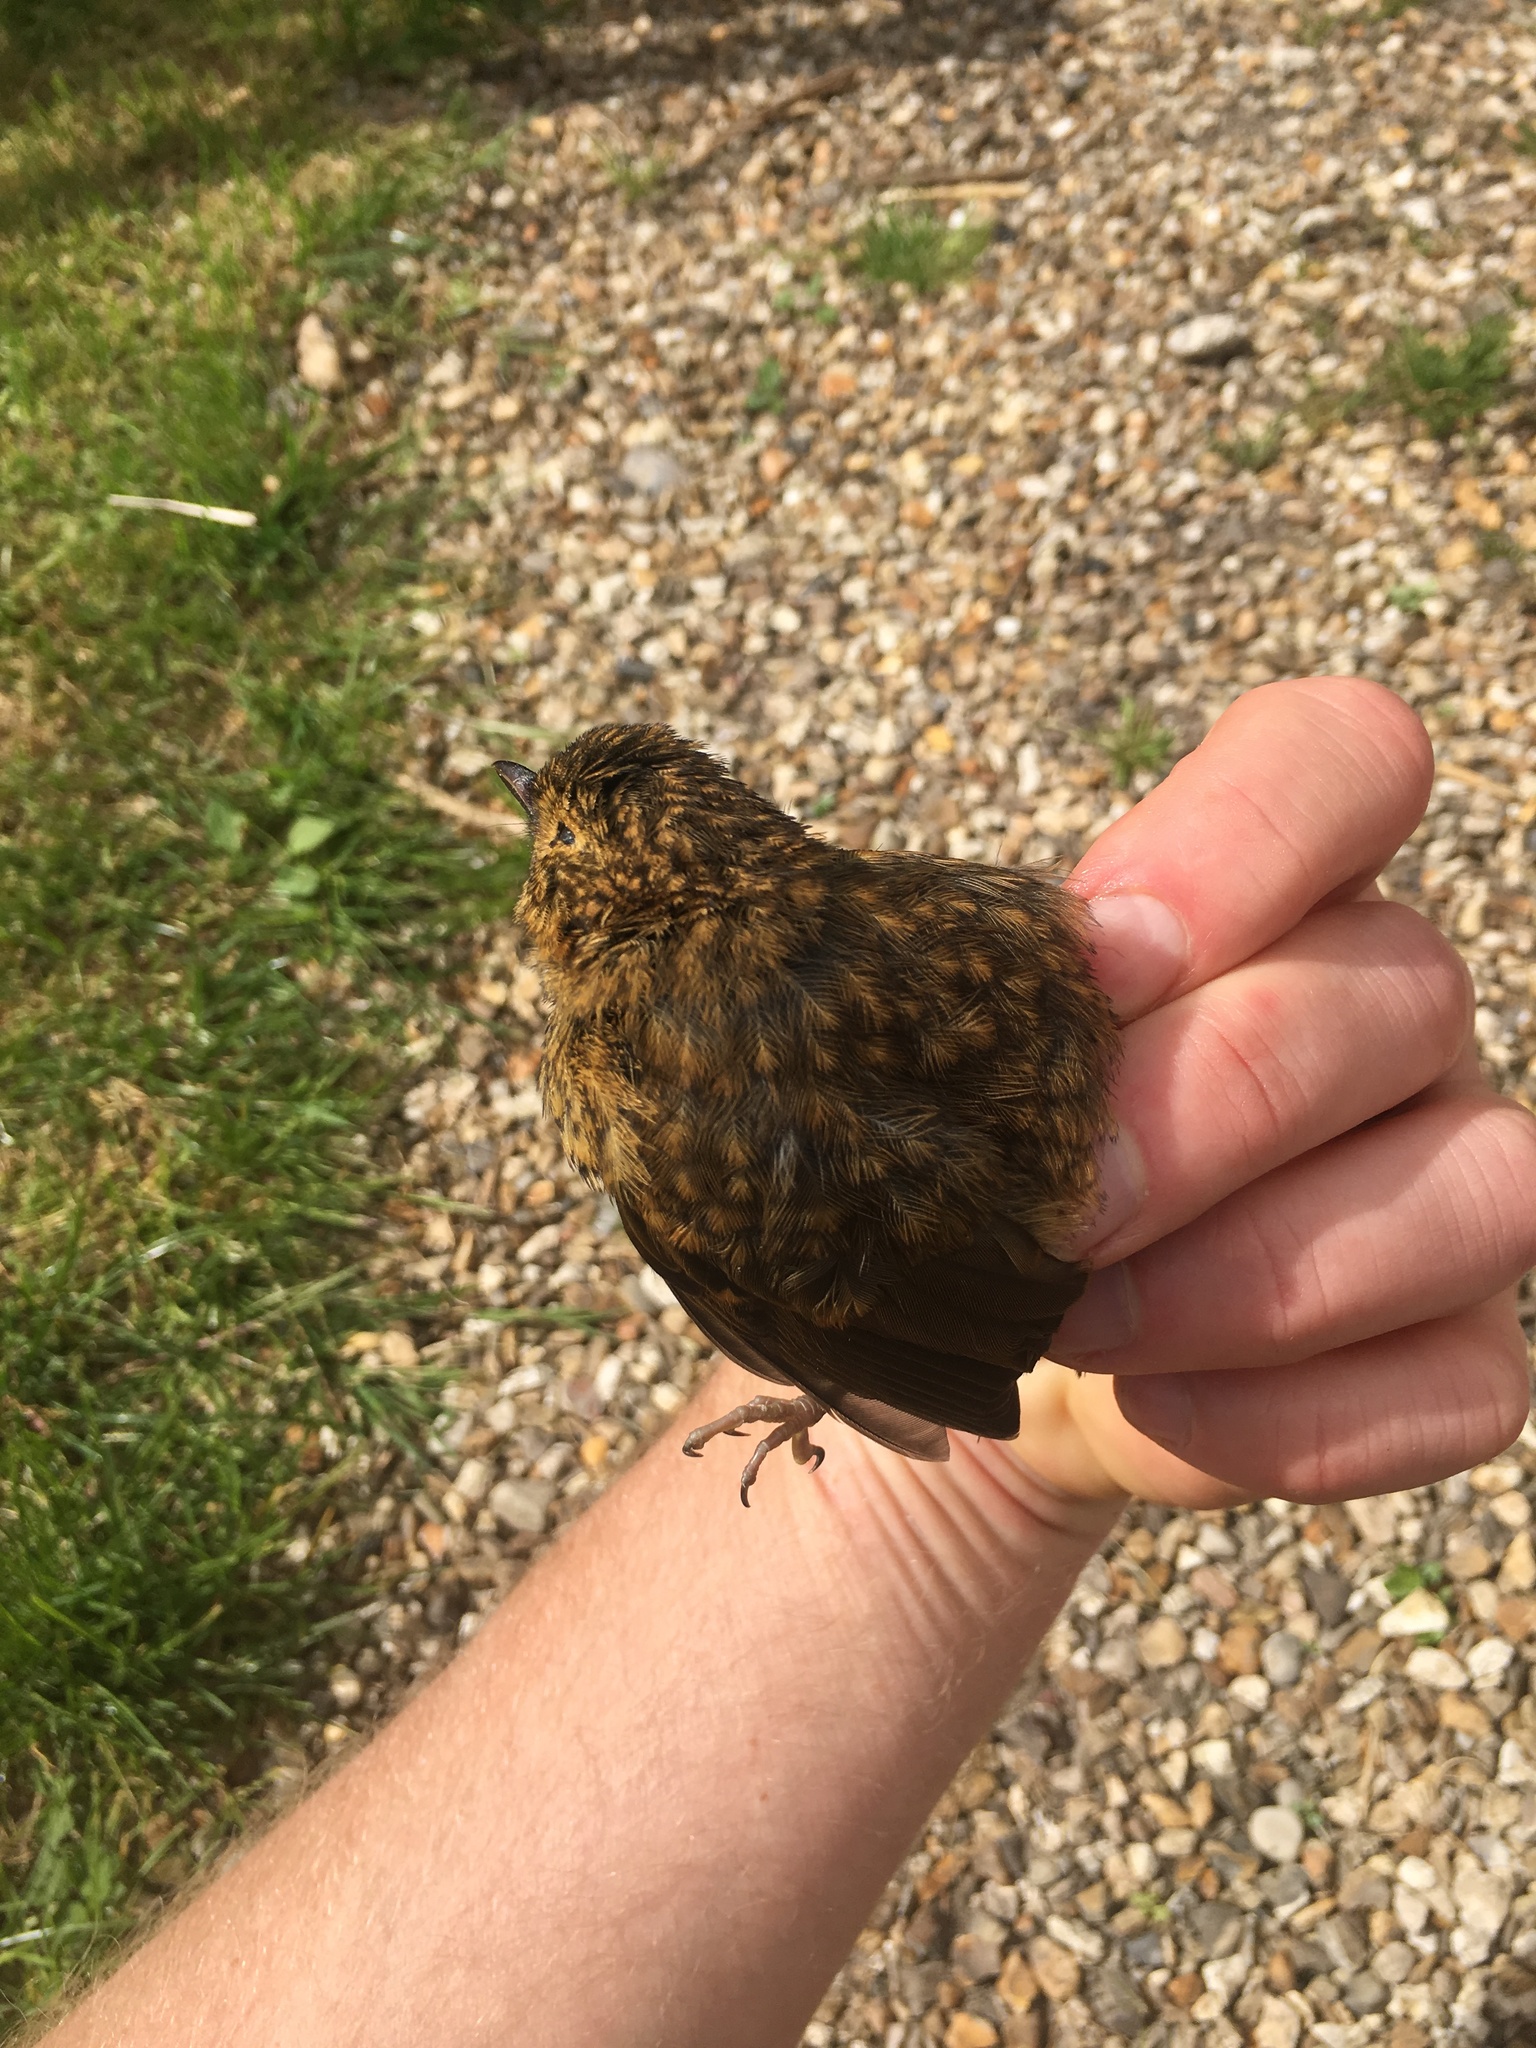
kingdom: Animalia
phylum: Chordata
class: Aves
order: Passeriformes
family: Muscicapidae
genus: Erithacus
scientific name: Erithacus rubecula
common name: European robin
